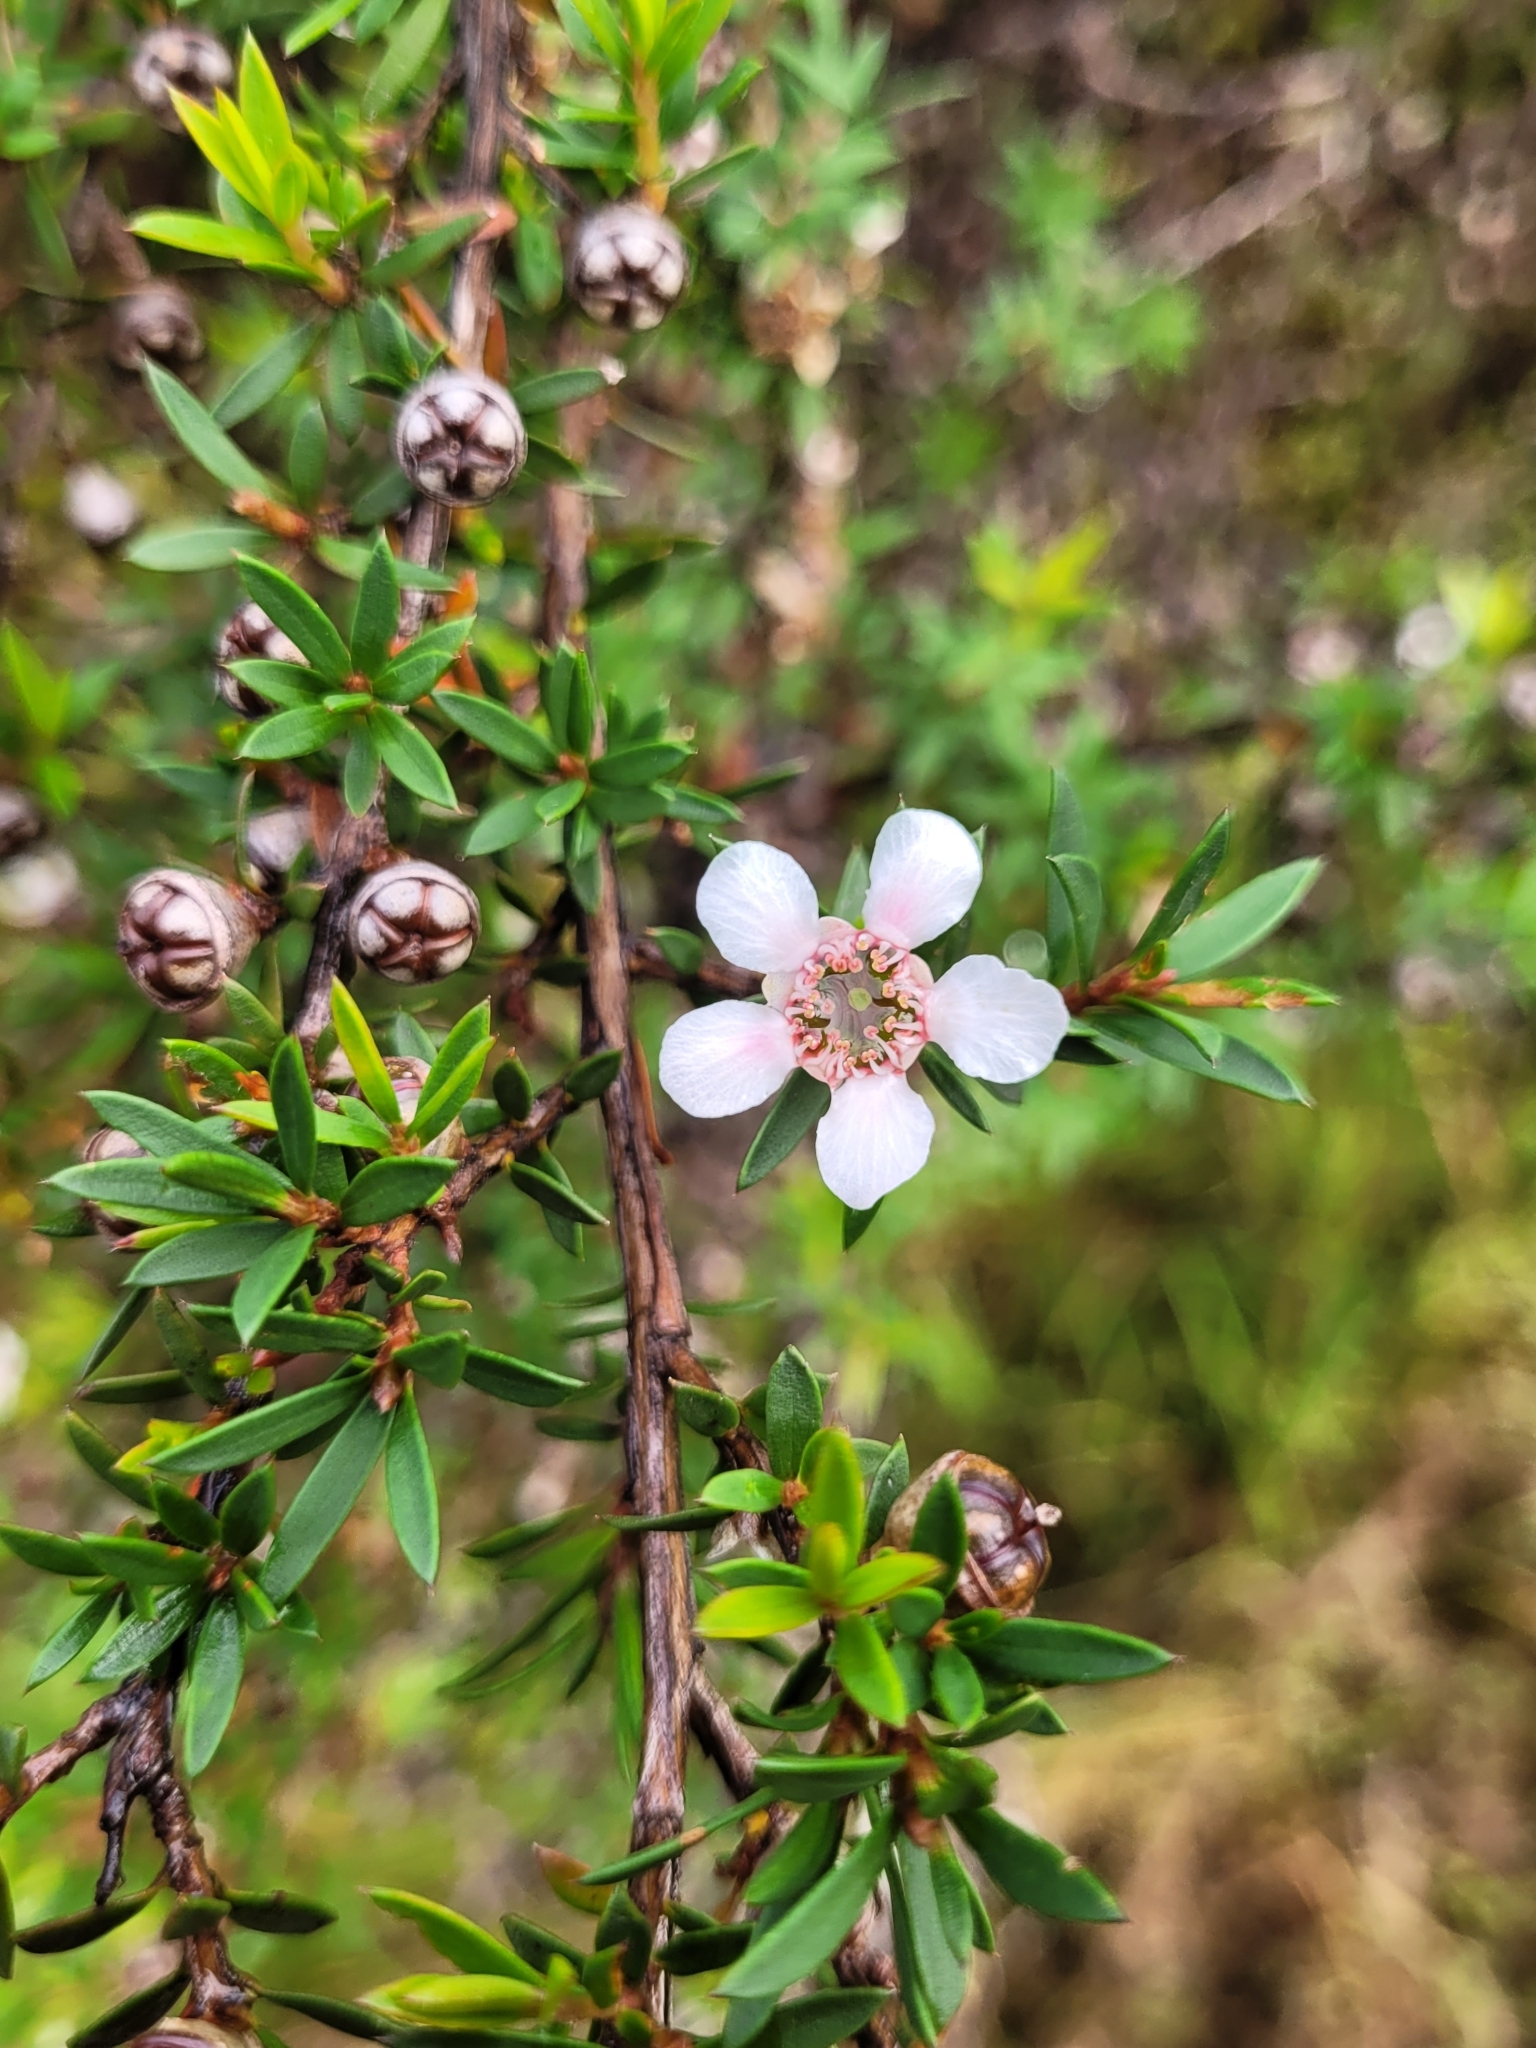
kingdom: Plantae
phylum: Tracheophyta
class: Magnoliopsida
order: Myrtales
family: Myrtaceae
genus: Leptospermum
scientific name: Leptospermum scoparium
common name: Broom tea-tree
